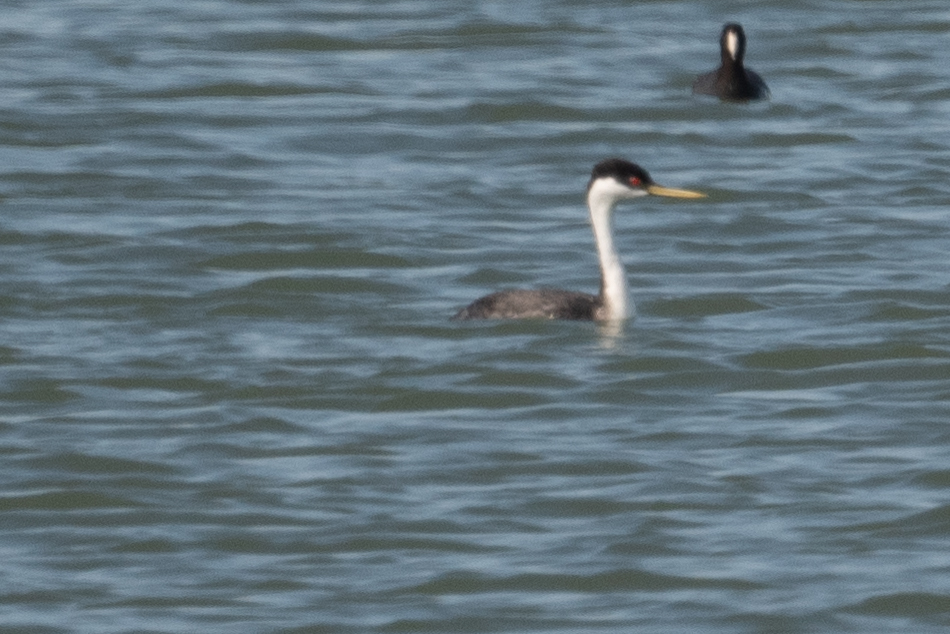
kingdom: Animalia
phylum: Chordata
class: Aves
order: Podicipediformes
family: Podicipedidae
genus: Aechmophorus
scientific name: Aechmophorus occidentalis
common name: Western grebe
